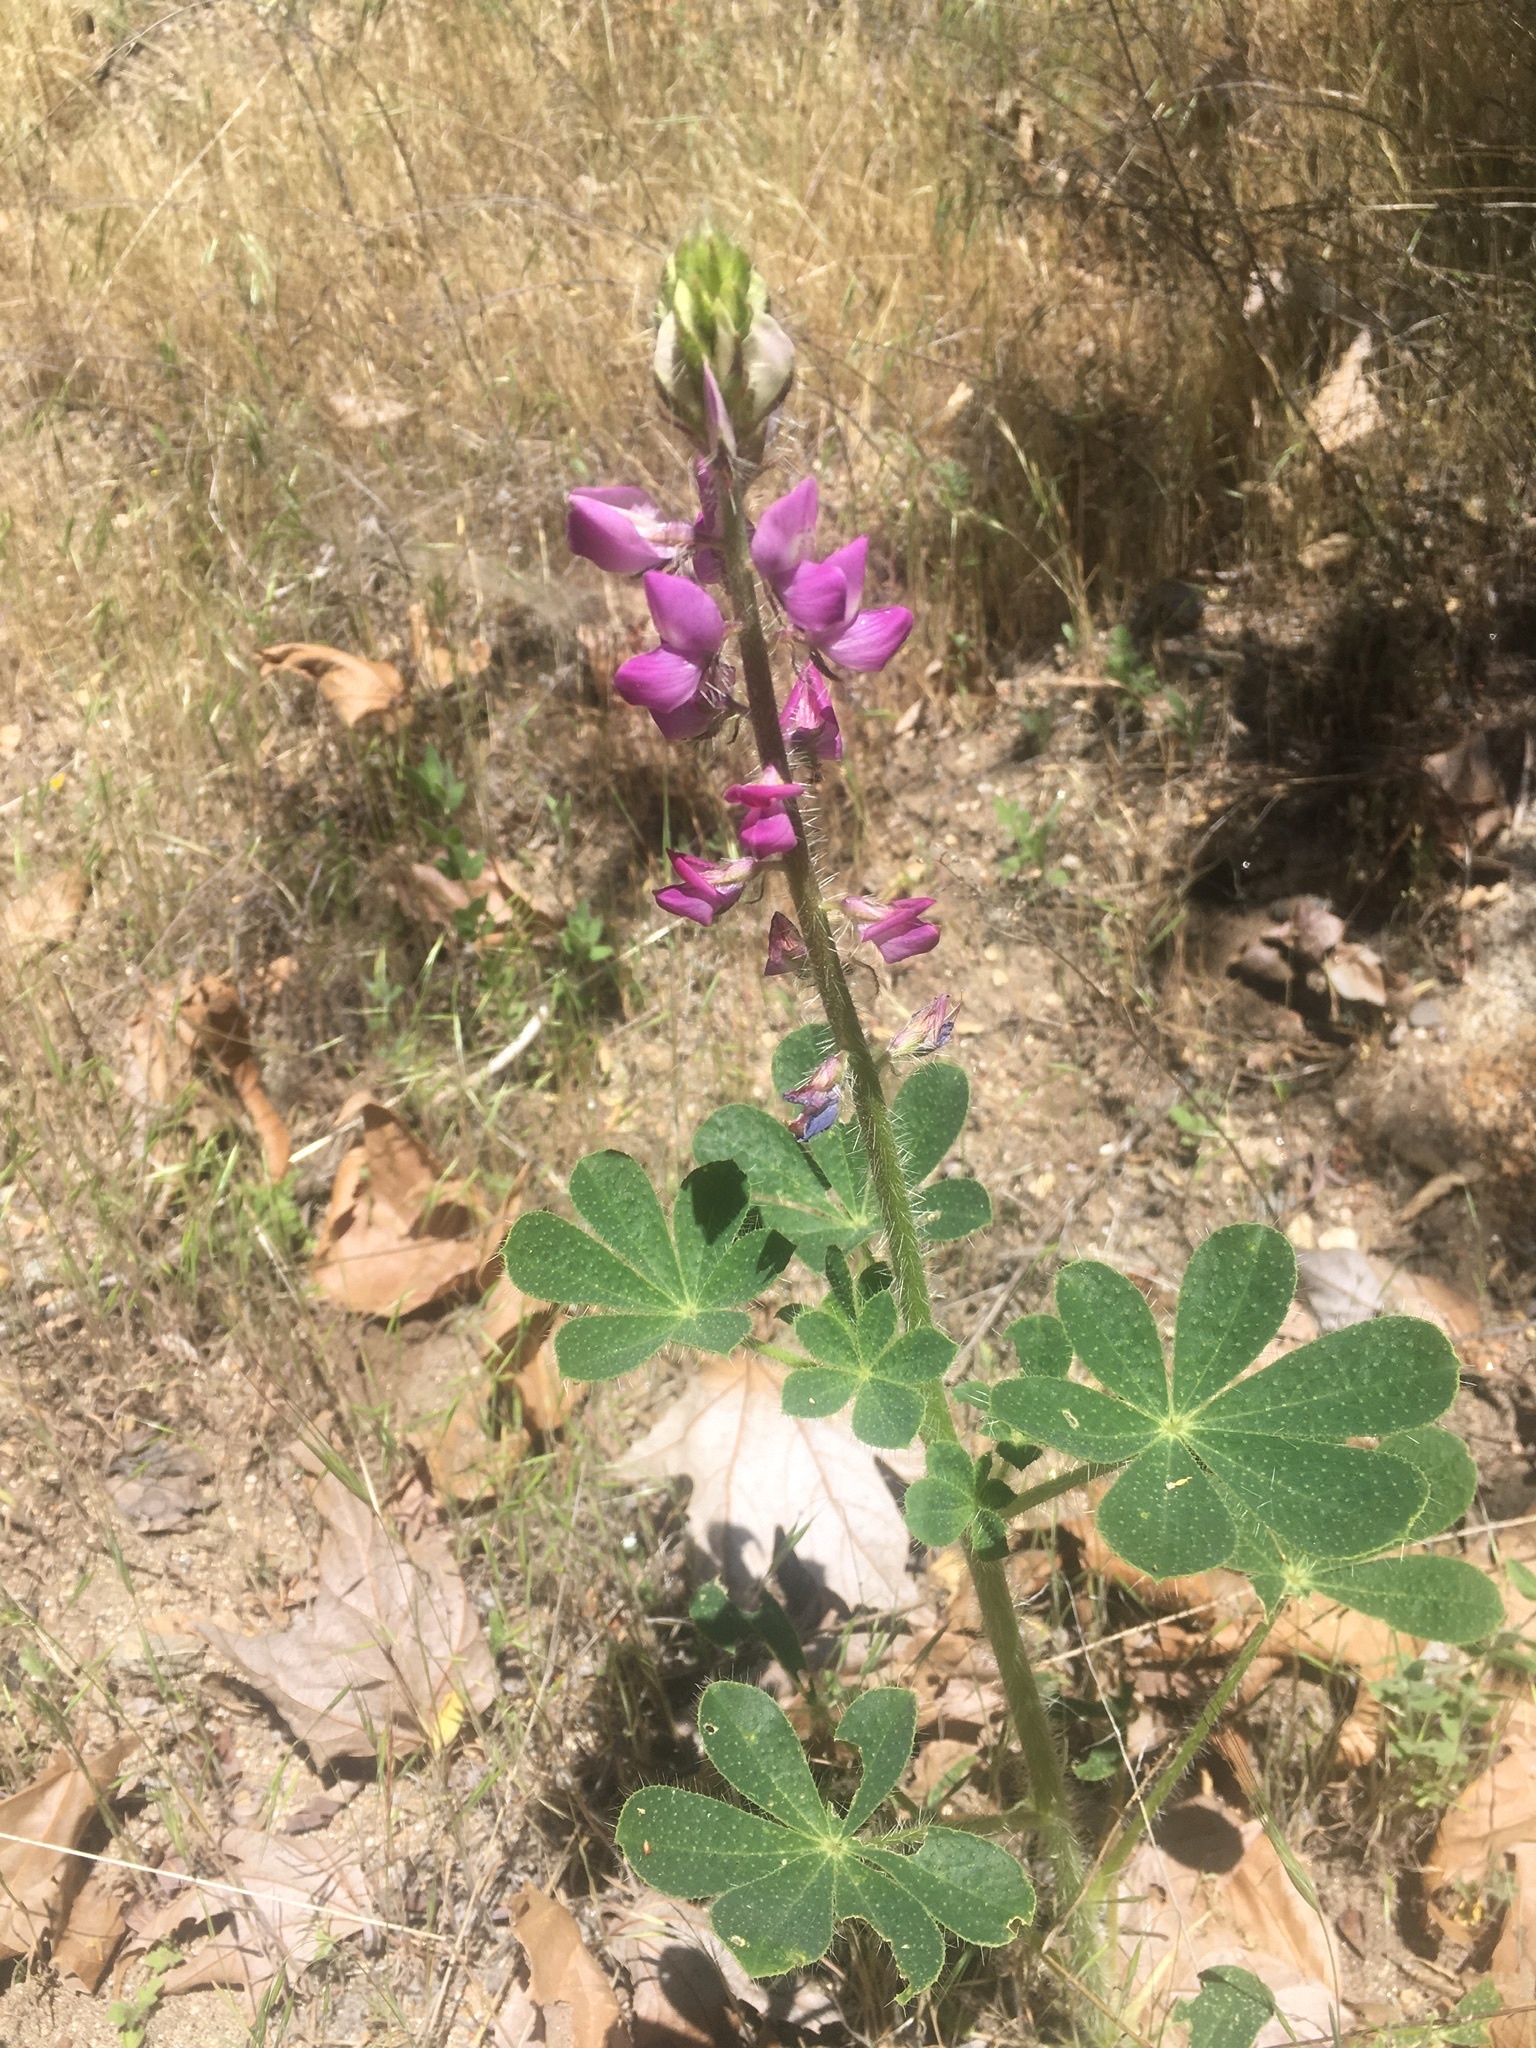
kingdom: Plantae
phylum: Tracheophyta
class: Magnoliopsida
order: Fabales
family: Fabaceae
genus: Lupinus
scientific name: Lupinus hirsutissimus
